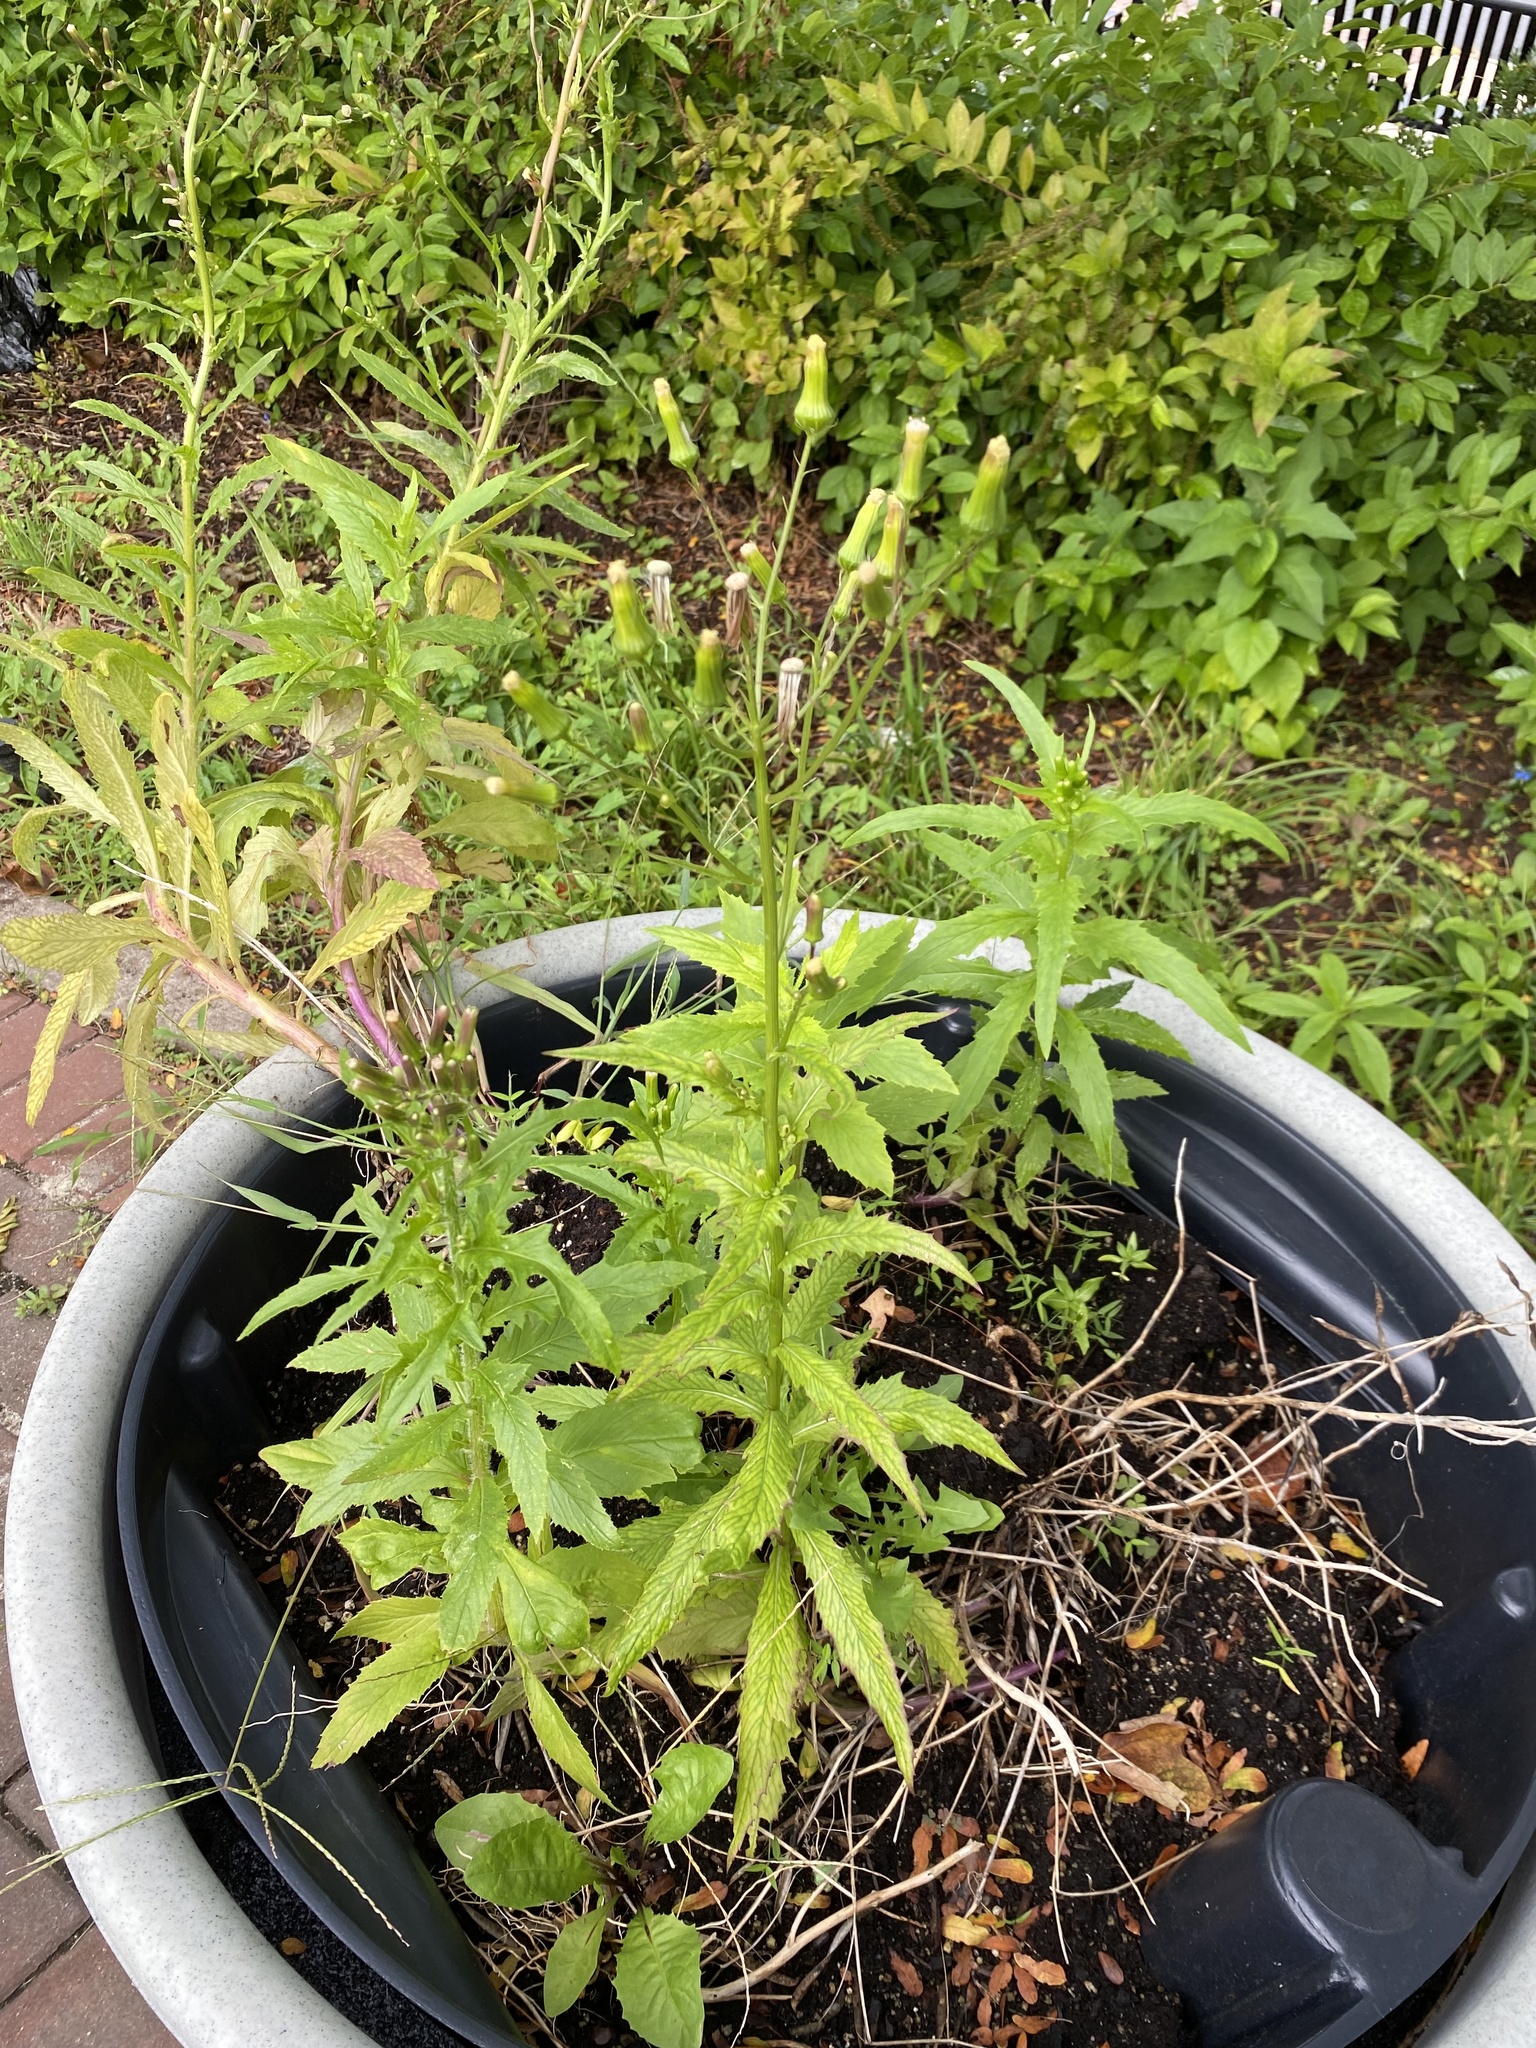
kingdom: Plantae
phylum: Tracheophyta
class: Magnoliopsida
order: Asterales
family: Asteraceae
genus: Erechtites
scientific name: Erechtites hieraciifolius
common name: American burnweed
